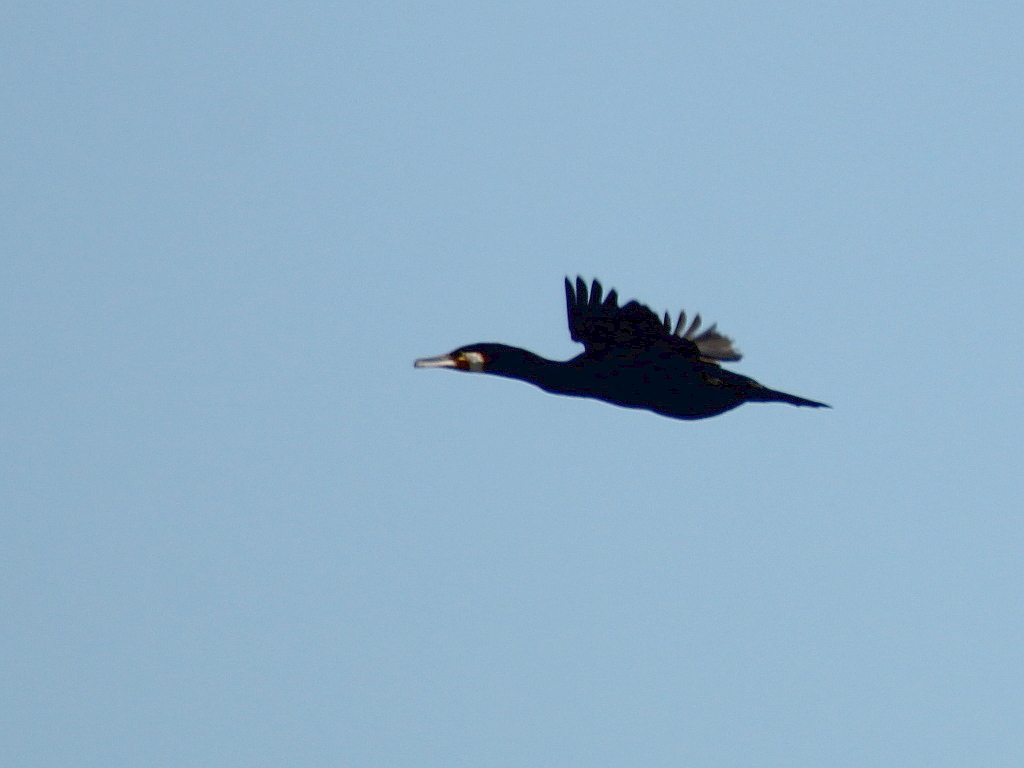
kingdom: Animalia
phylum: Chordata
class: Aves
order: Suliformes
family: Phalacrocoracidae
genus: Phalacrocorax
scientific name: Phalacrocorax carbo
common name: Great cormorant
